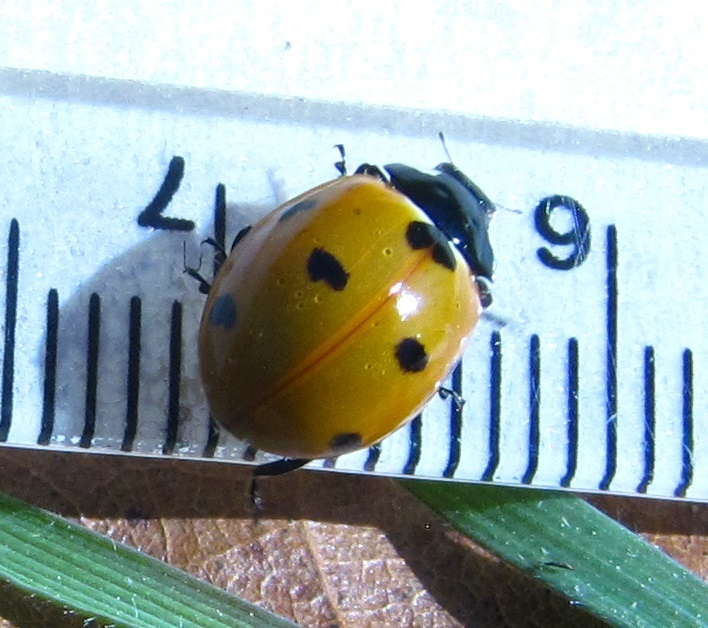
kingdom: Animalia
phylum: Arthropoda
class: Insecta
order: Coleoptera
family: Coccinellidae
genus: Coccinella
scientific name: Coccinella septempunctata
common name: Sevenspotted lady beetle
